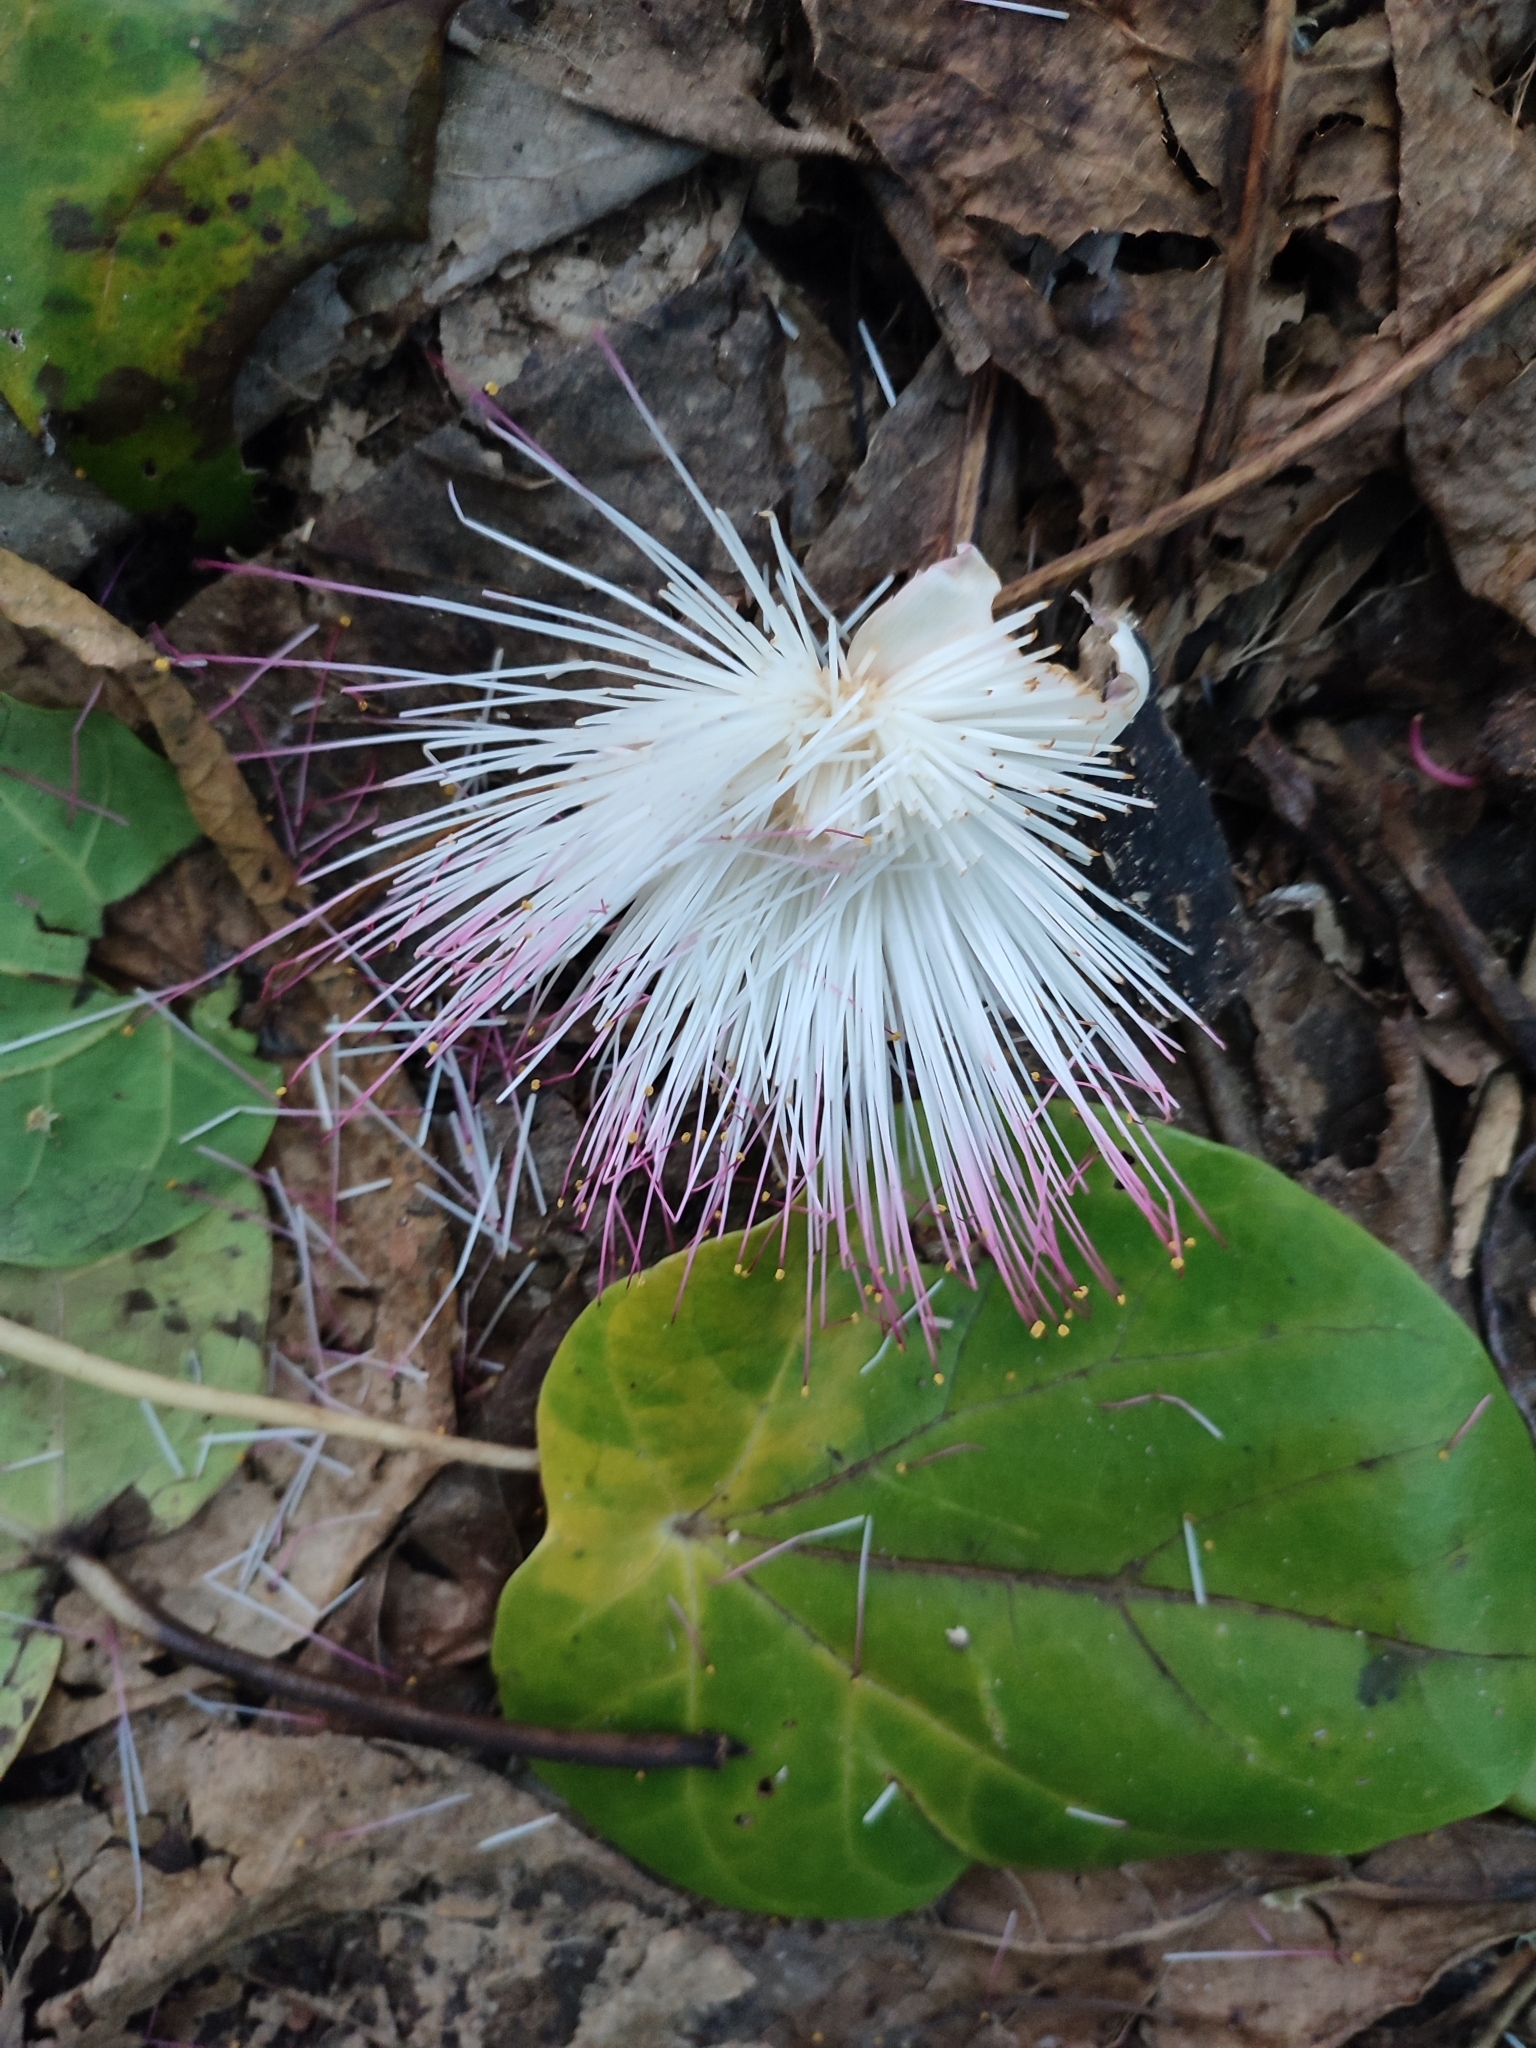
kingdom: Plantae
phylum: Tracheophyta
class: Magnoliopsida
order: Ericales
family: Lecythidaceae
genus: Barringtonia
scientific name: Barringtonia asiatica
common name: Mango-pine
